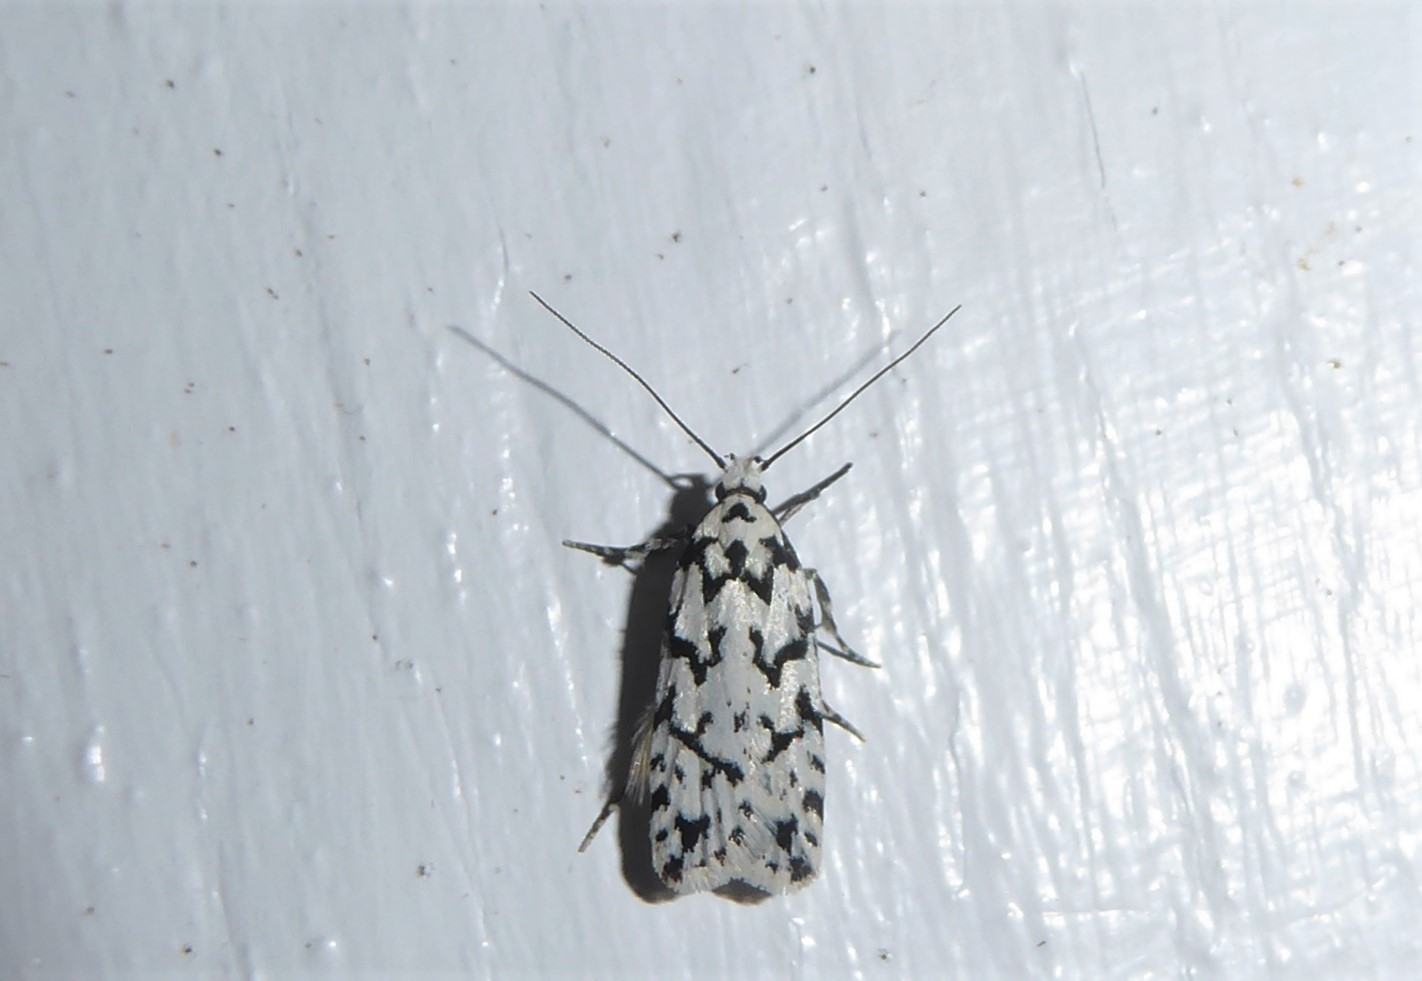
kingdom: Animalia
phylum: Arthropoda
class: Insecta
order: Lepidoptera
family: Oecophoridae
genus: Izatha
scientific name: Izatha katadiktya
